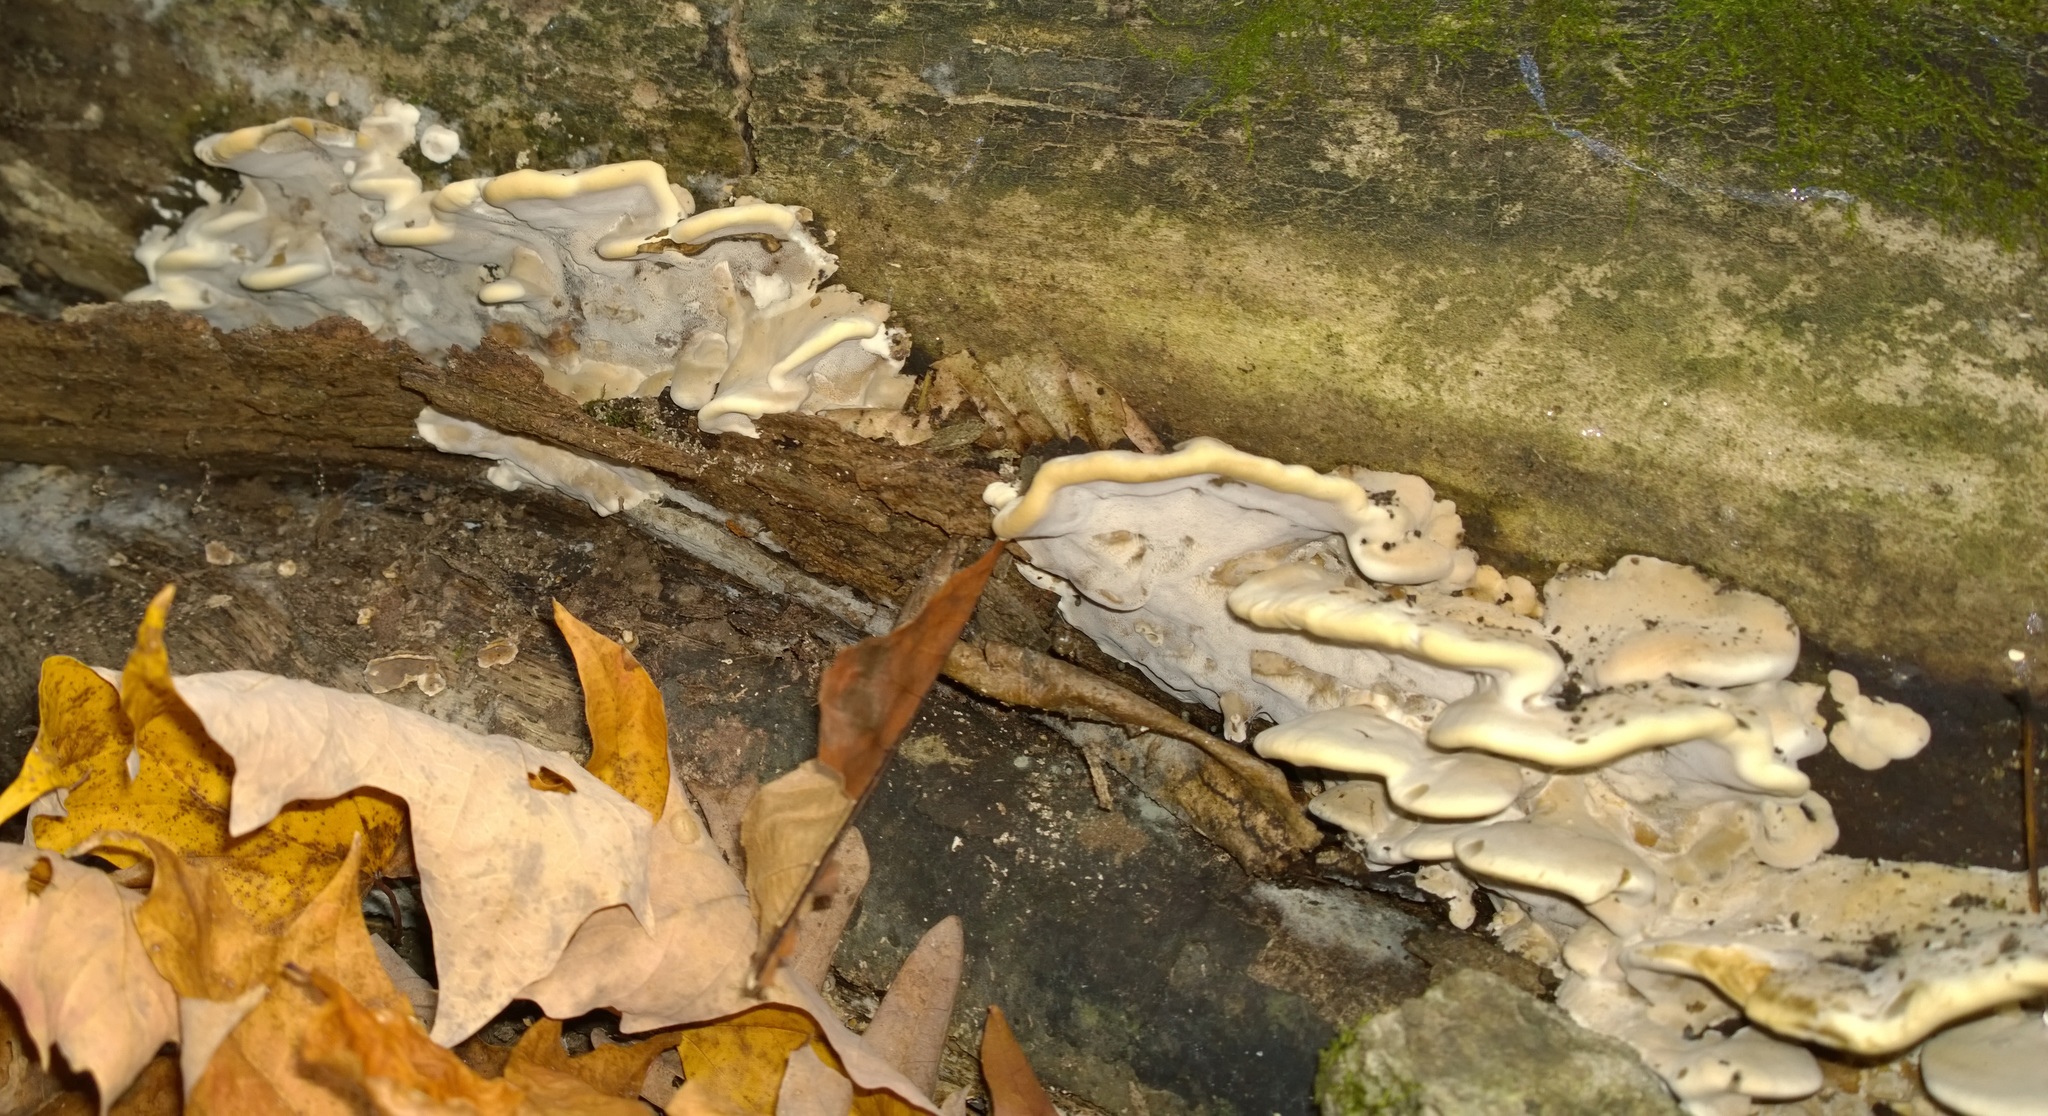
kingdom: Fungi
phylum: Basidiomycota
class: Agaricomycetes
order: Polyporales
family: Phanerochaetaceae
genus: Bjerkandera
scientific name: Bjerkandera fumosa
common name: Big smoky bracket
